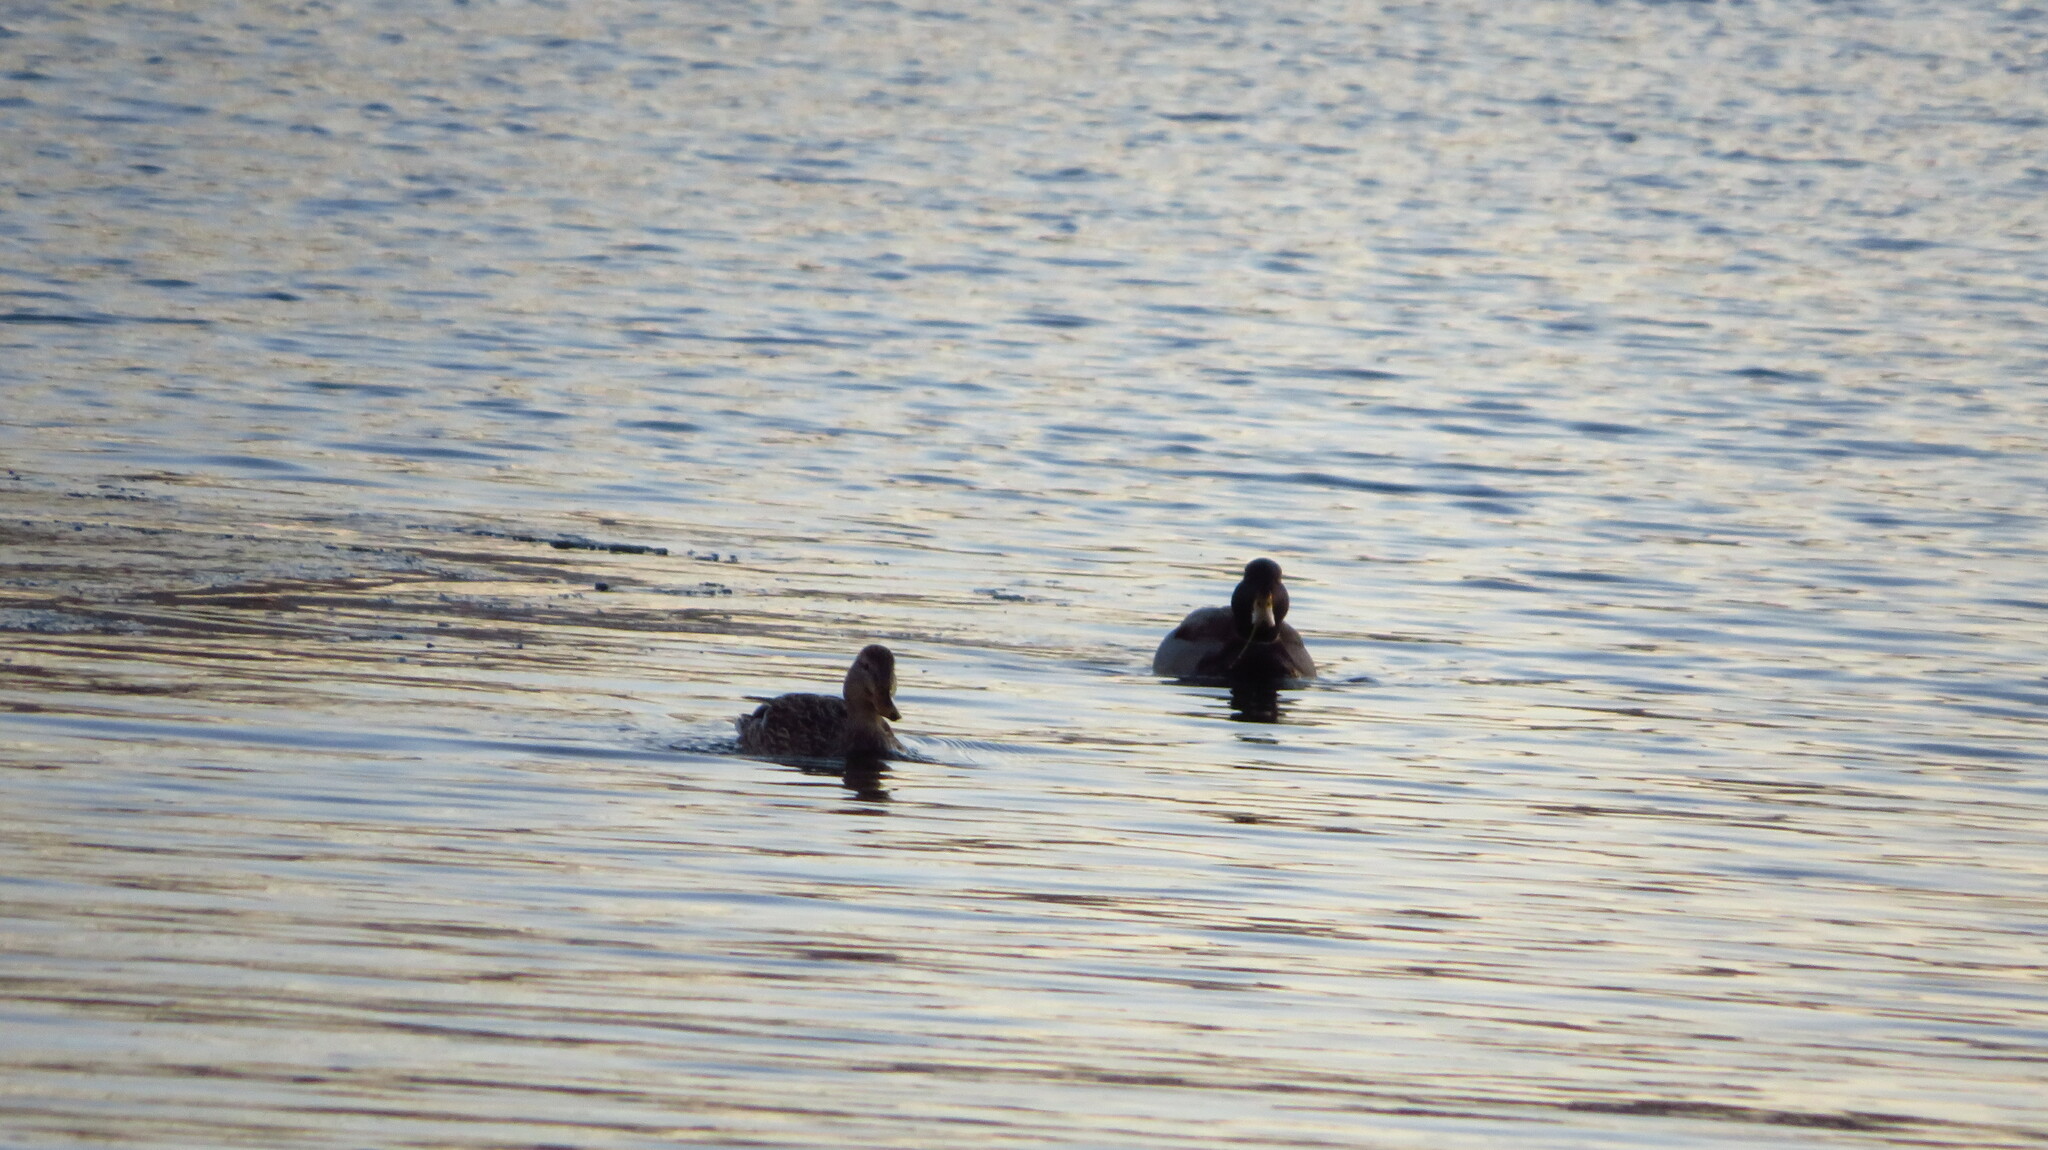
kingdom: Animalia
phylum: Chordata
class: Aves
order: Anseriformes
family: Anatidae
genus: Anas
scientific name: Anas platyrhynchos
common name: Mallard
